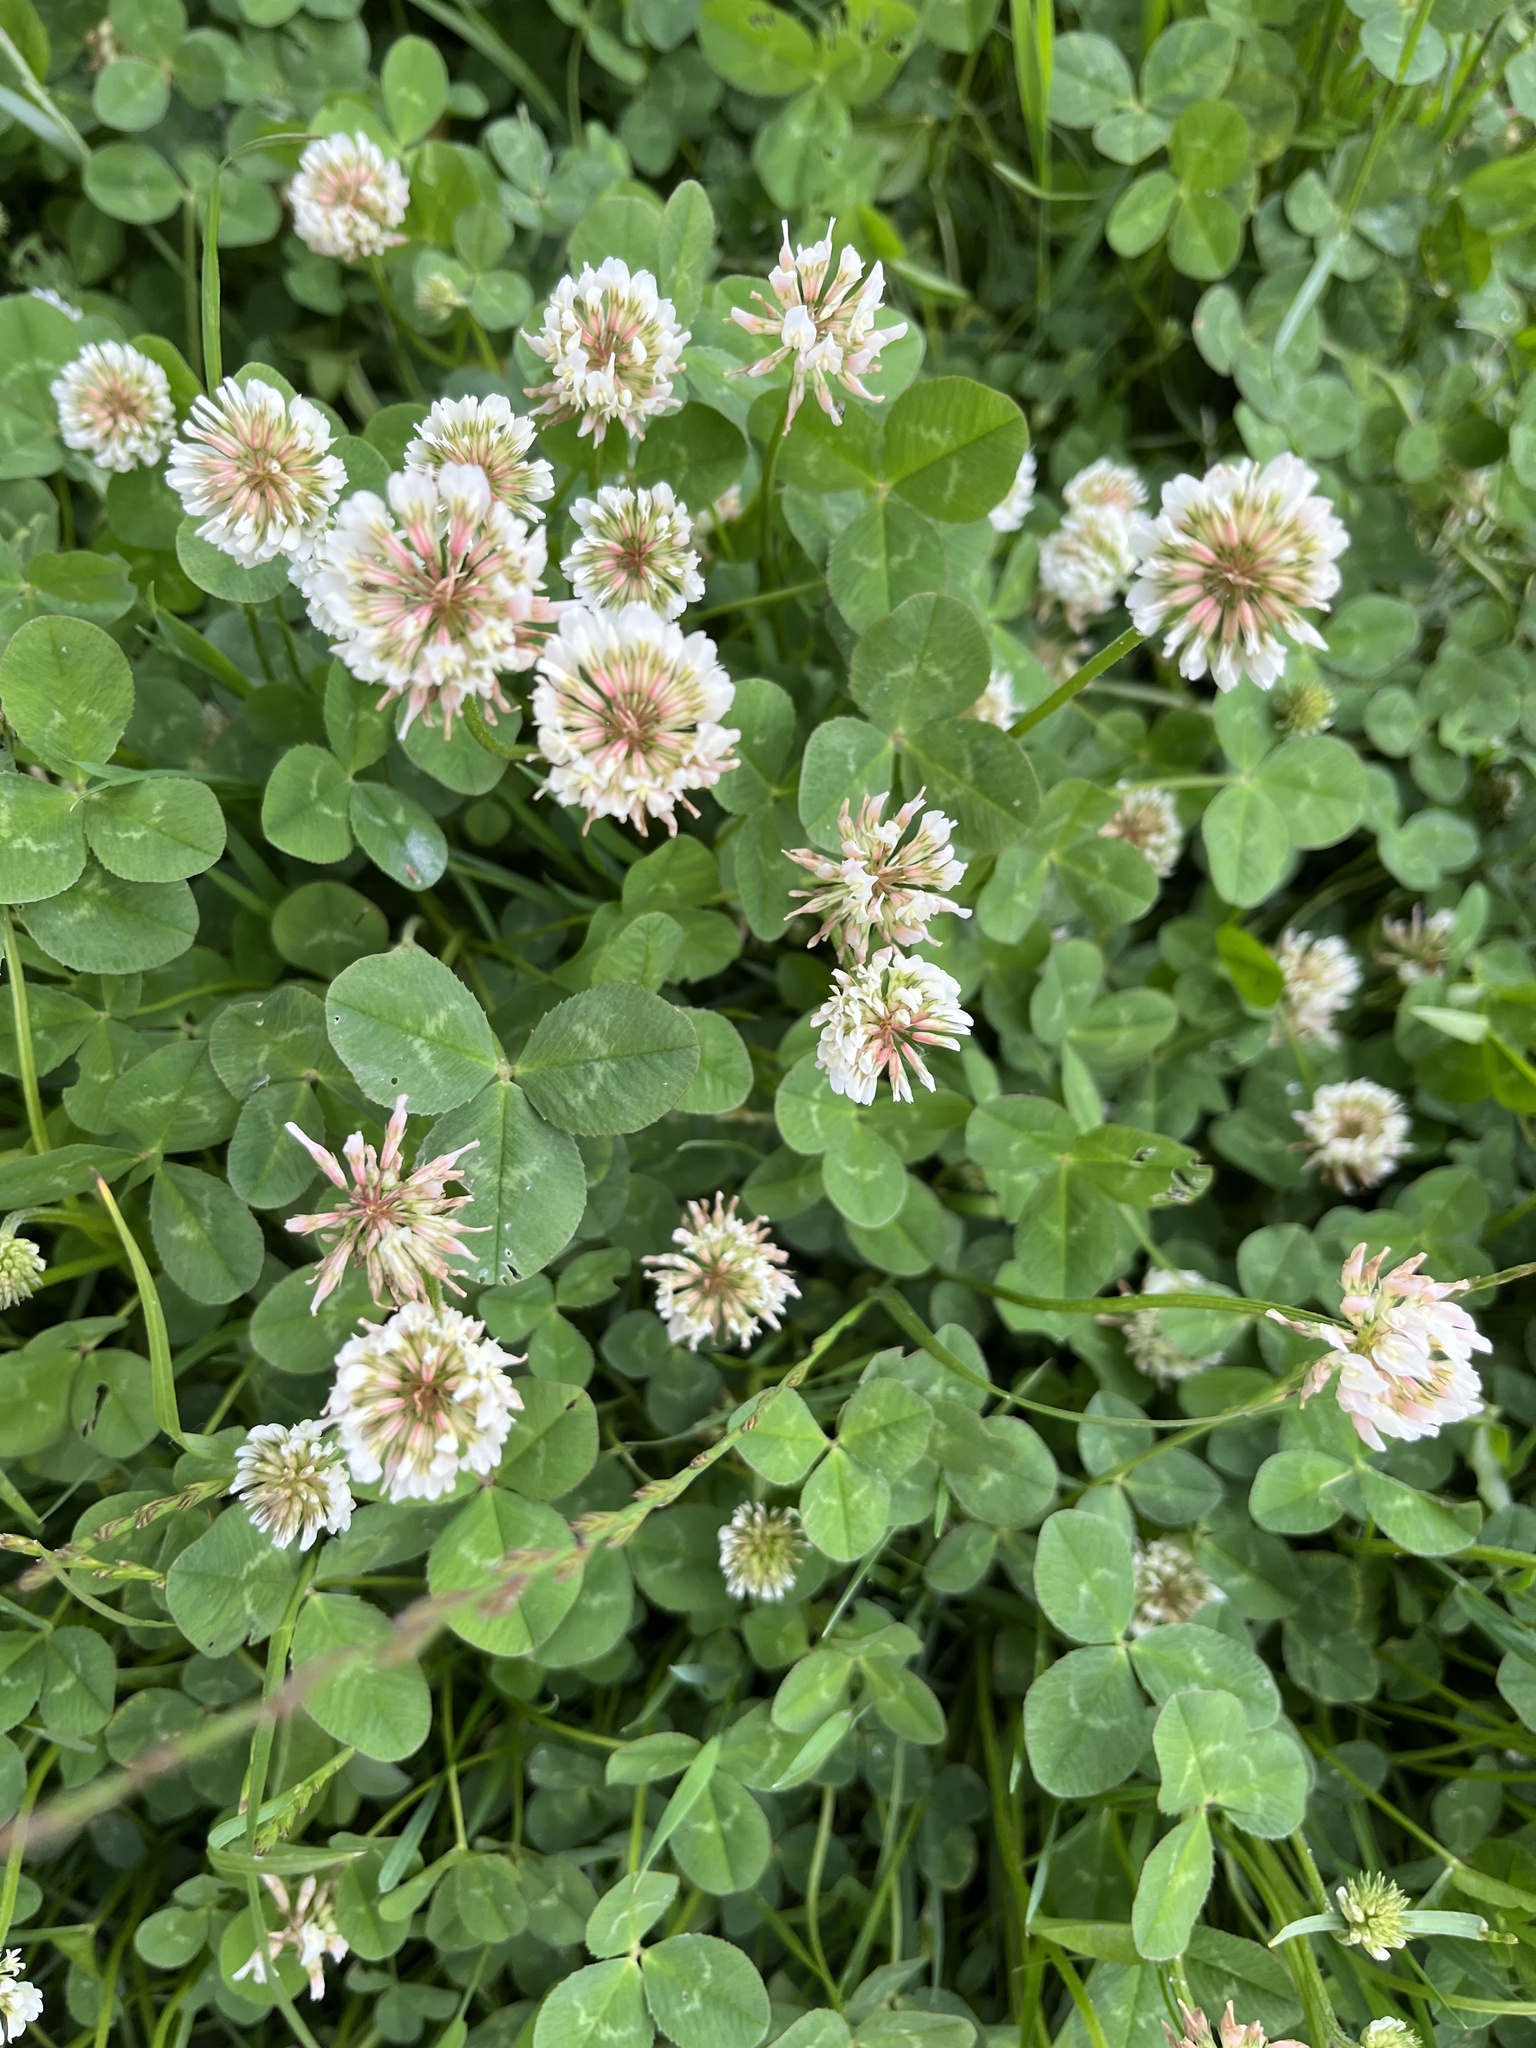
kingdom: Plantae
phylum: Tracheophyta
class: Magnoliopsida
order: Fabales
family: Fabaceae
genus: Trifolium
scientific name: Trifolium repens
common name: White clover
